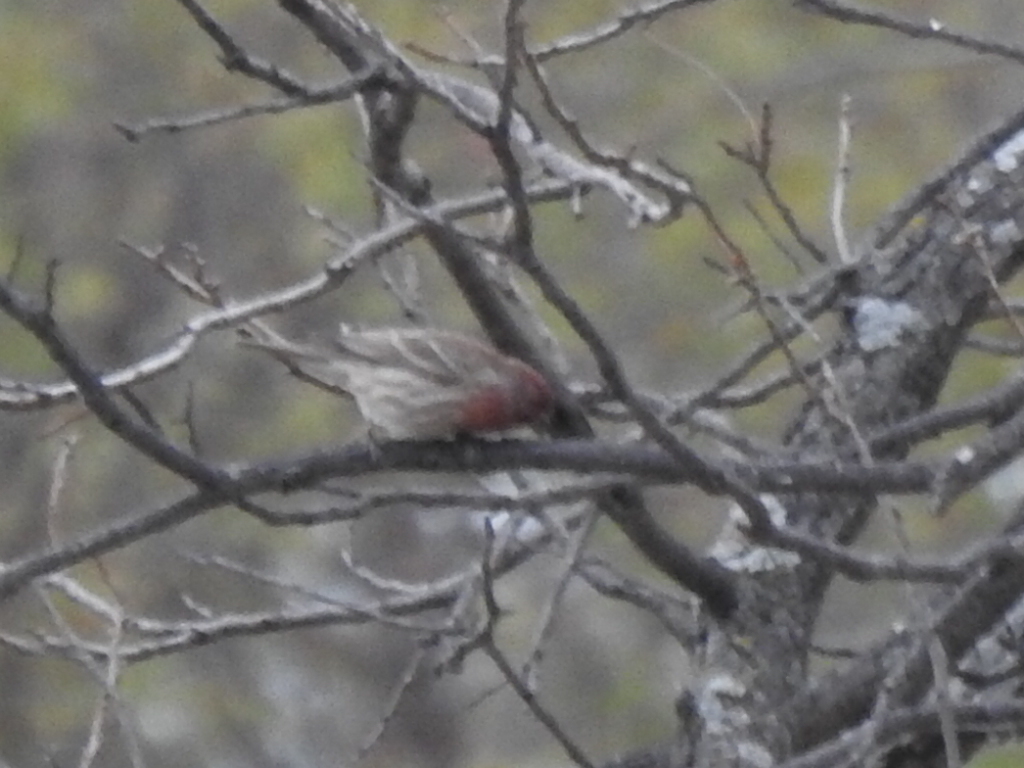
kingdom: Animalia
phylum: Chordata
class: Aves
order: Passeriformes
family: Fringillidae
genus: Haemorhous
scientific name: Haemorhous mexicanus
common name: House finch
